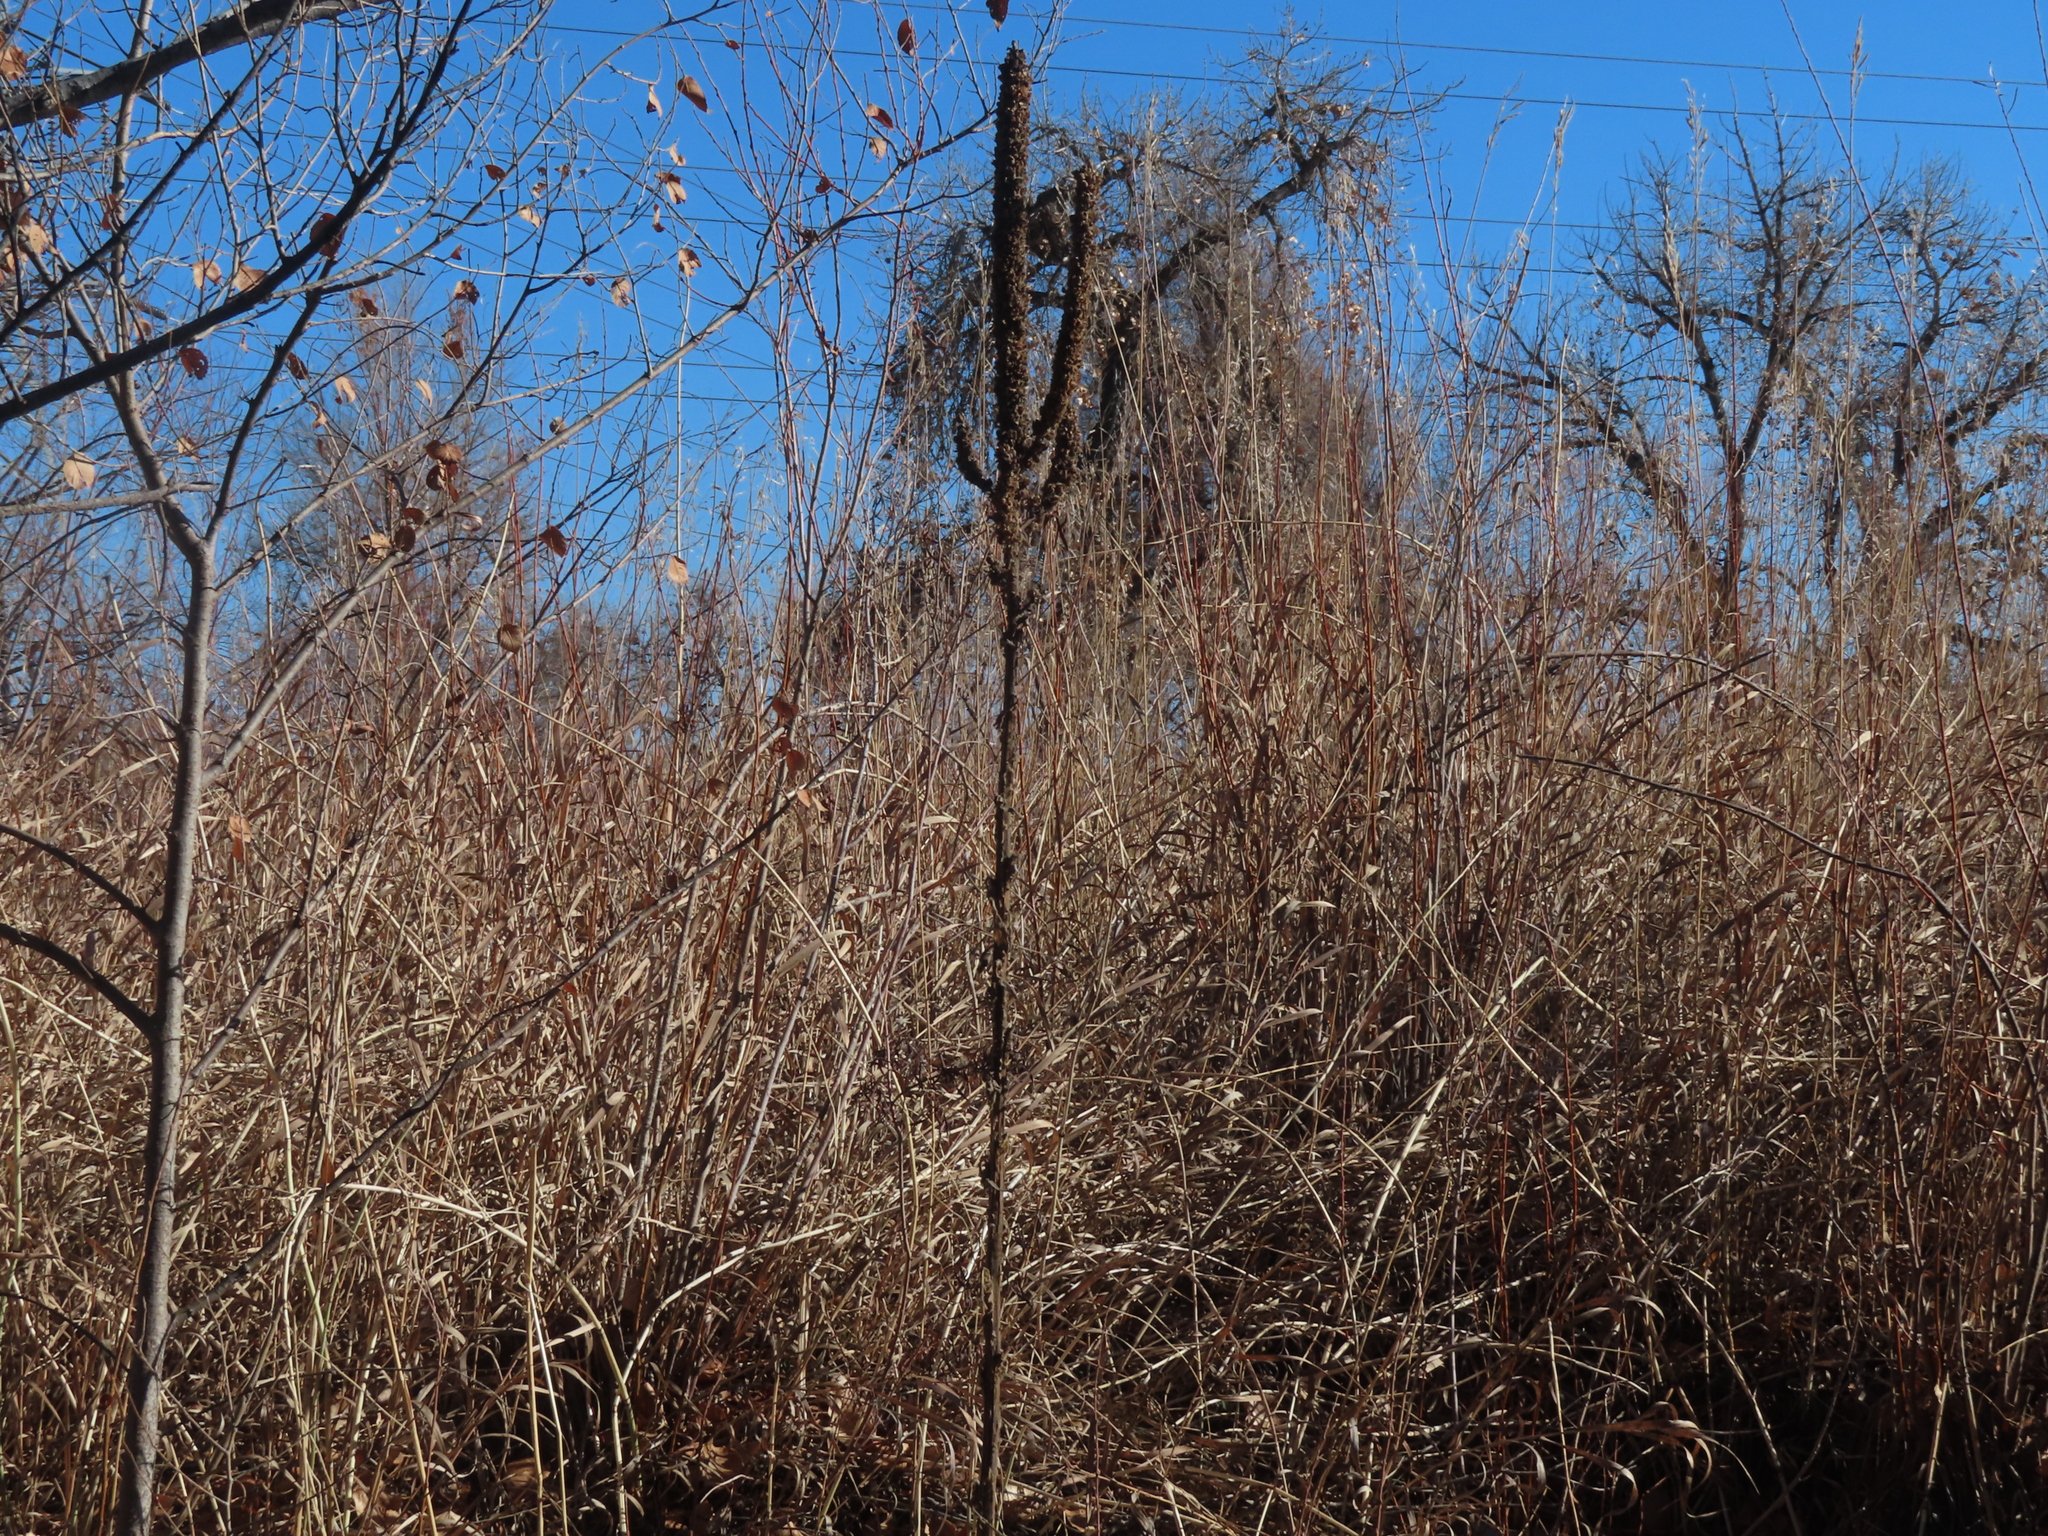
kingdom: Plantae
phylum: Tracheophyta
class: Magnoliopsida
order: Lamiales
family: Scrophulariaceae
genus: Verbascum
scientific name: Verbascum thapsus
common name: Common mullein
